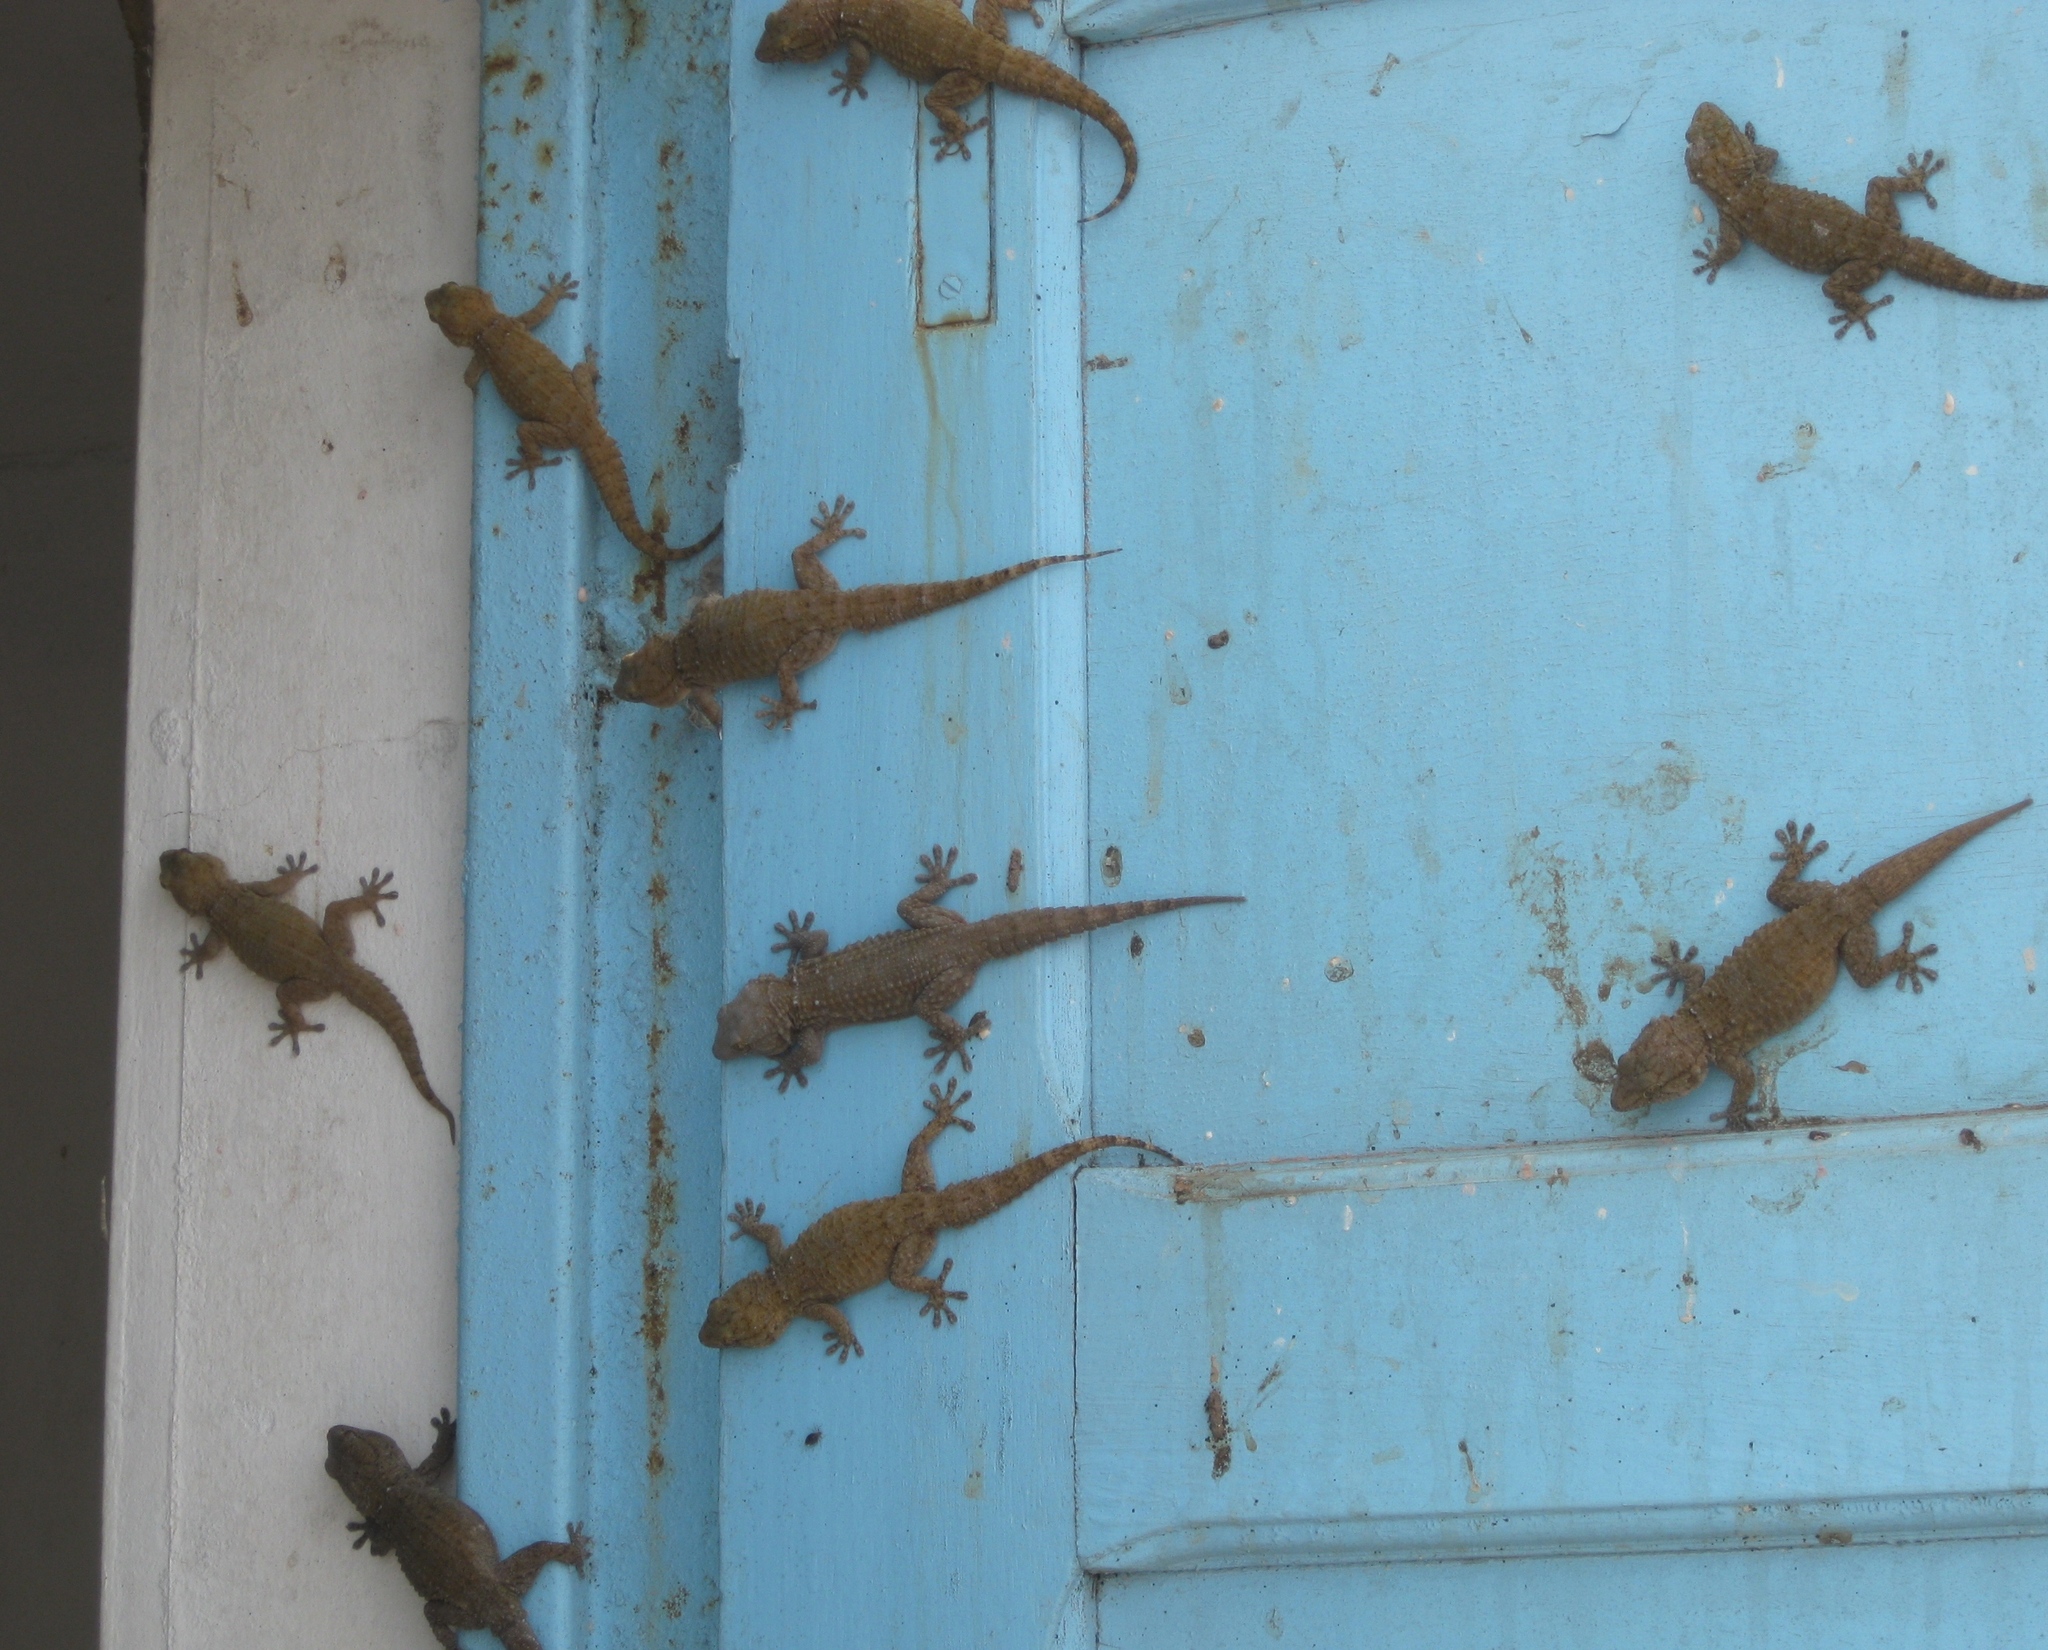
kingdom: Animalia
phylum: Chordata
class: Squamata
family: Phyllodactylidae
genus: Tarentola
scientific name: Tarentola annularis
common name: White-spotted wall gecko
